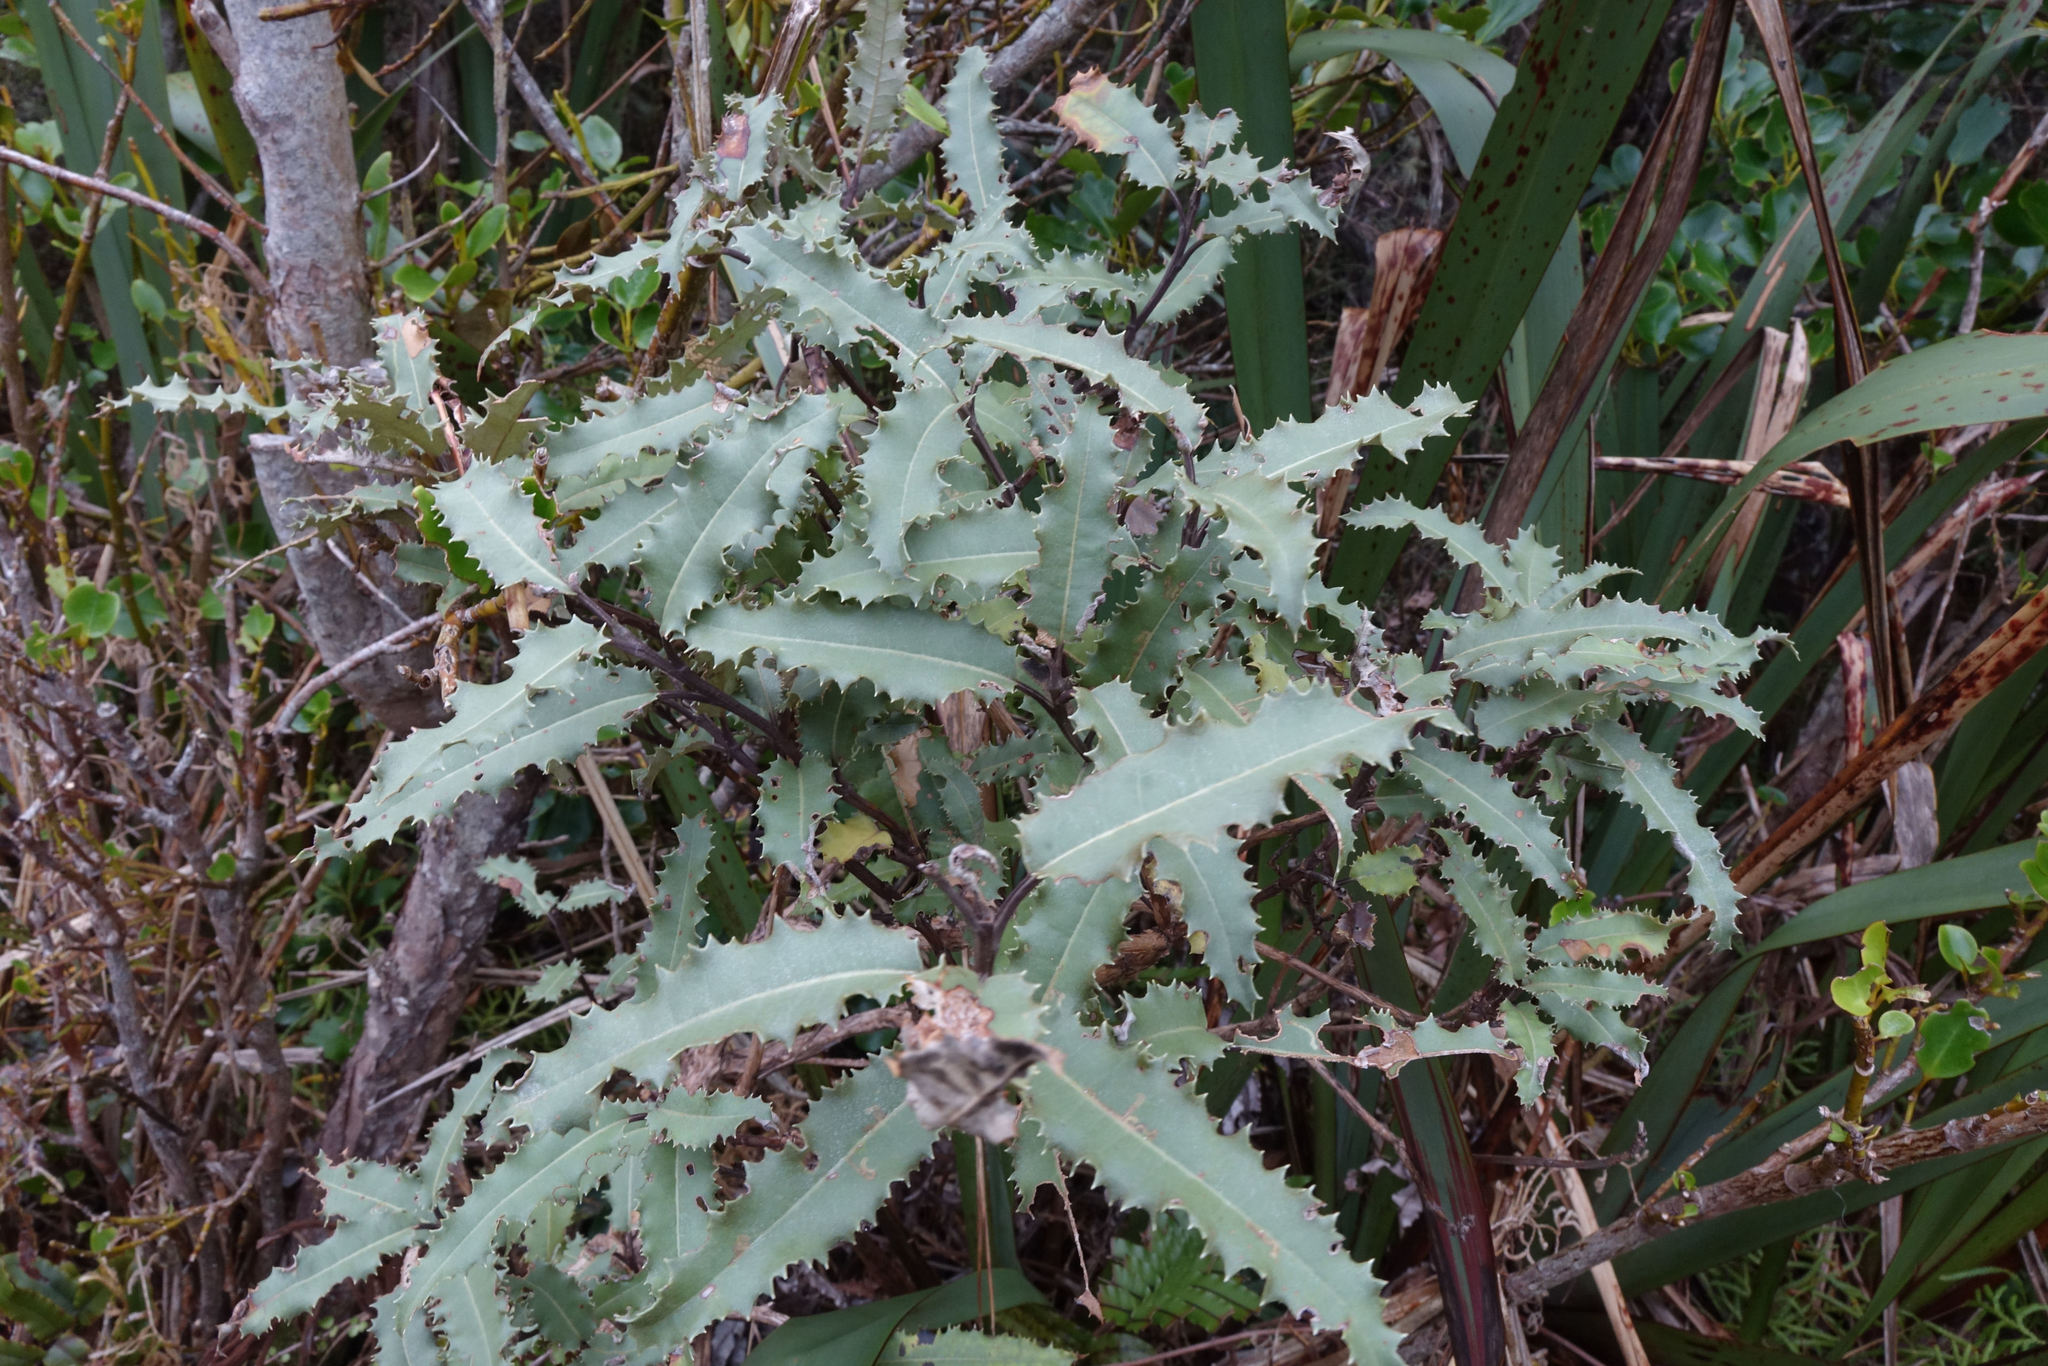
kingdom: Plantae
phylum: Tracheophyta
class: Magnoliopsida
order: Asterales
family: Asteraceae
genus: Olearia
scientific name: Olearia ilicifolia
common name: Maori-holly
